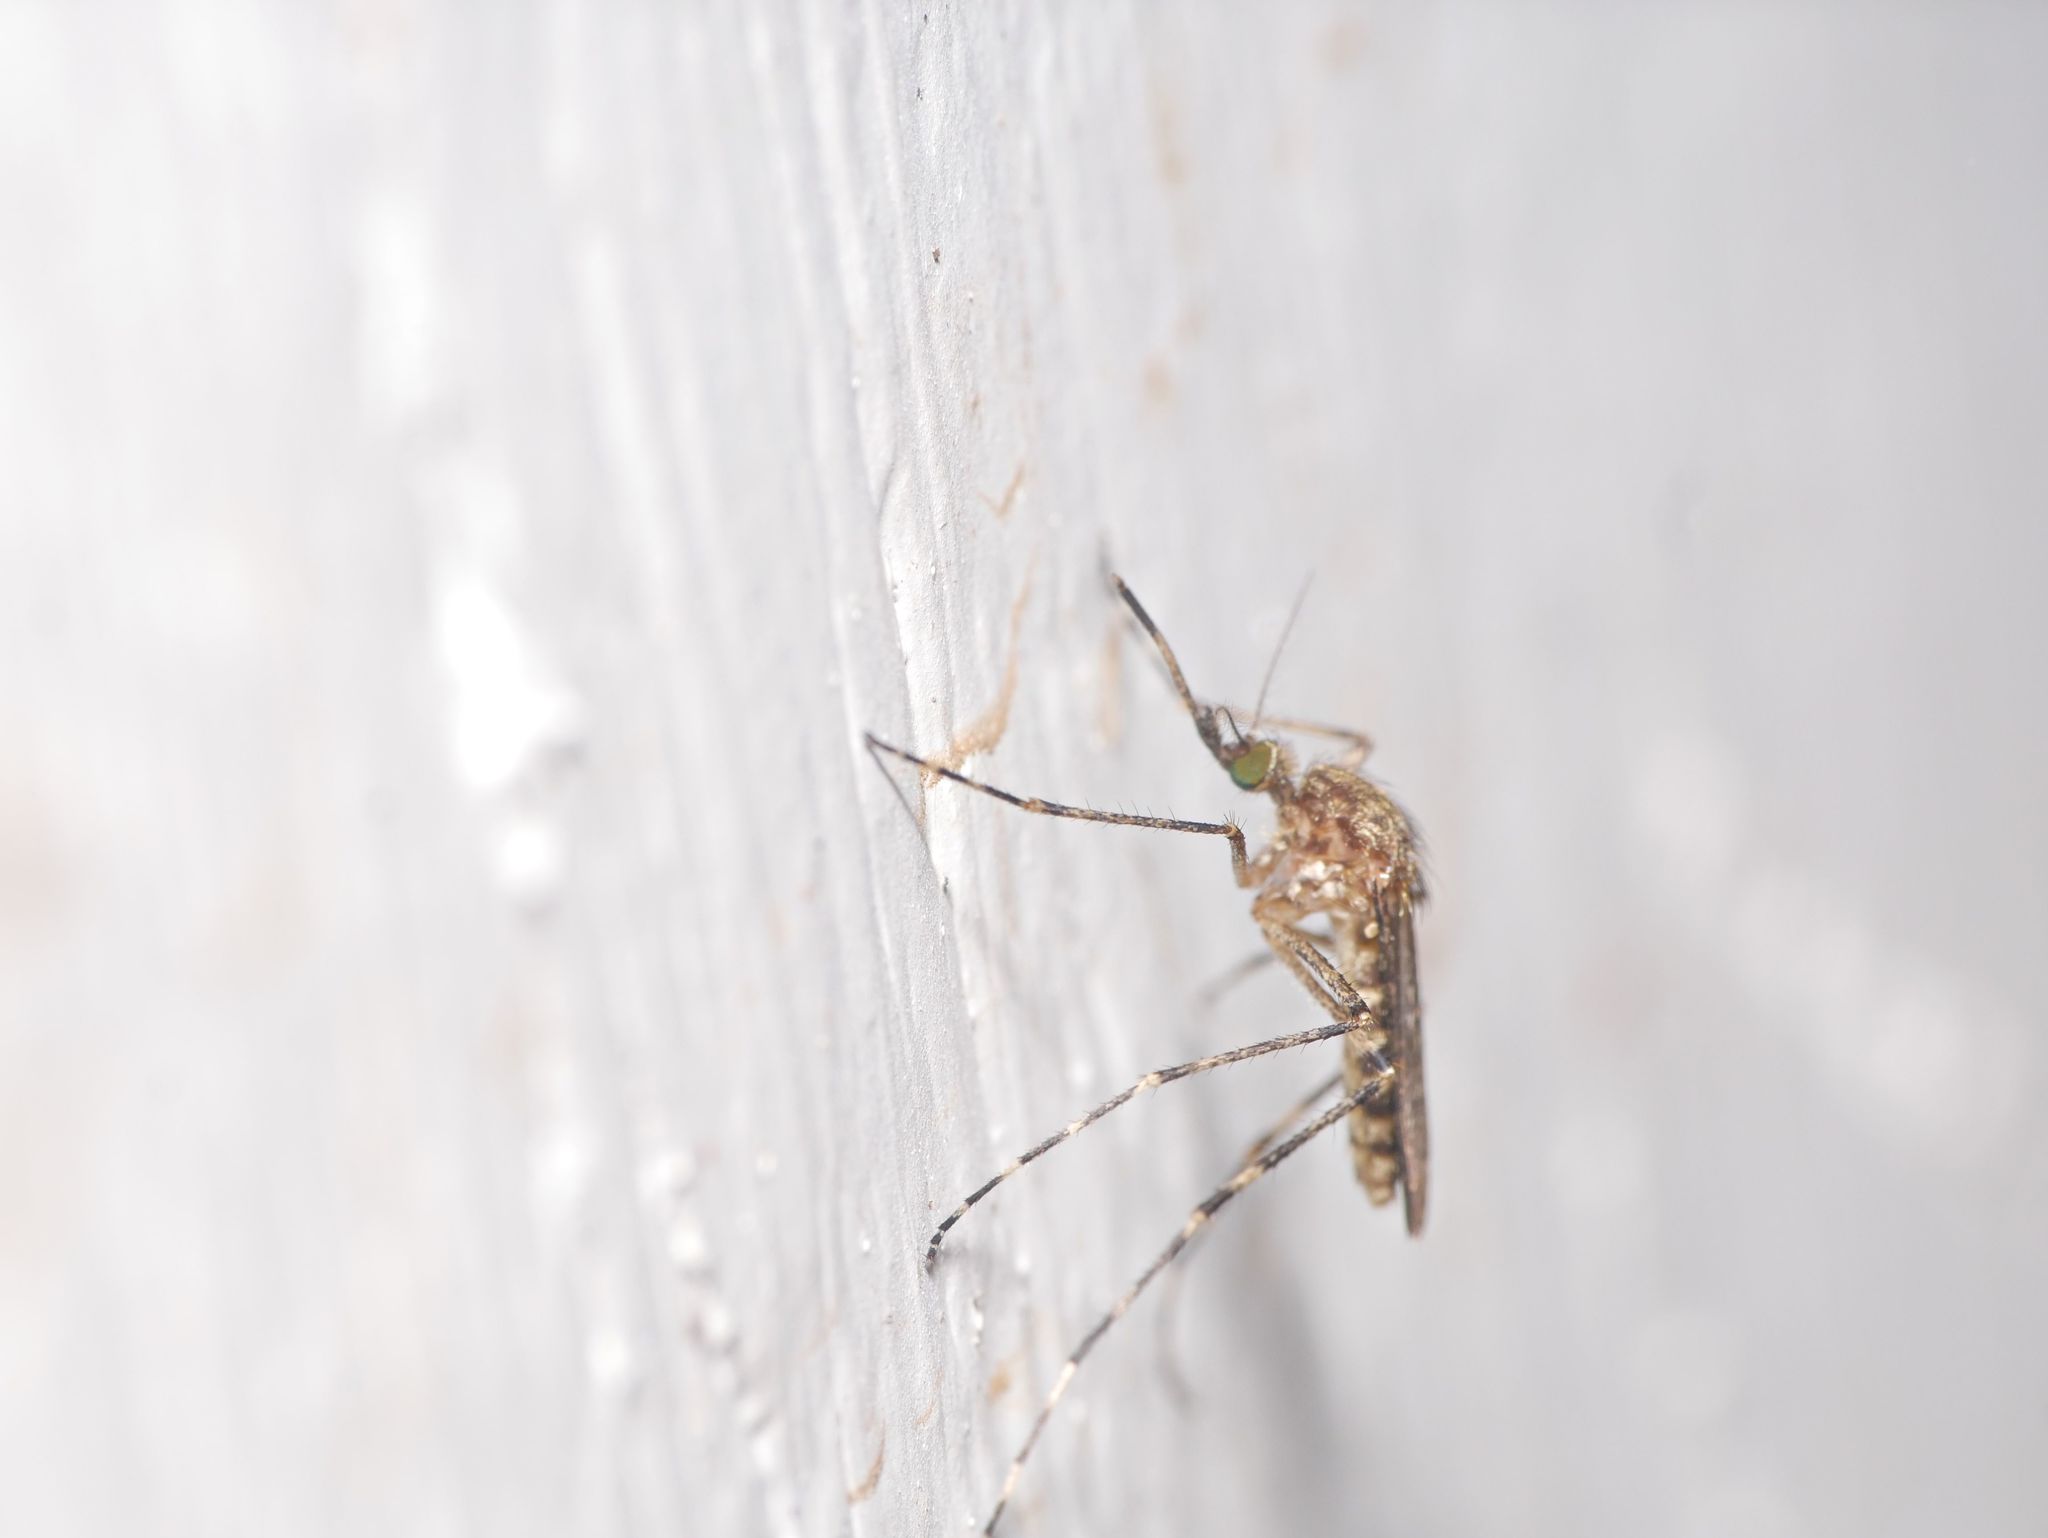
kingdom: Animalia
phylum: Arthropoda
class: Insecta
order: Diptera
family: Culicidae
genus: Coquillettidia
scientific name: Coquillettidia perturbans
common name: Cattail mosquito
